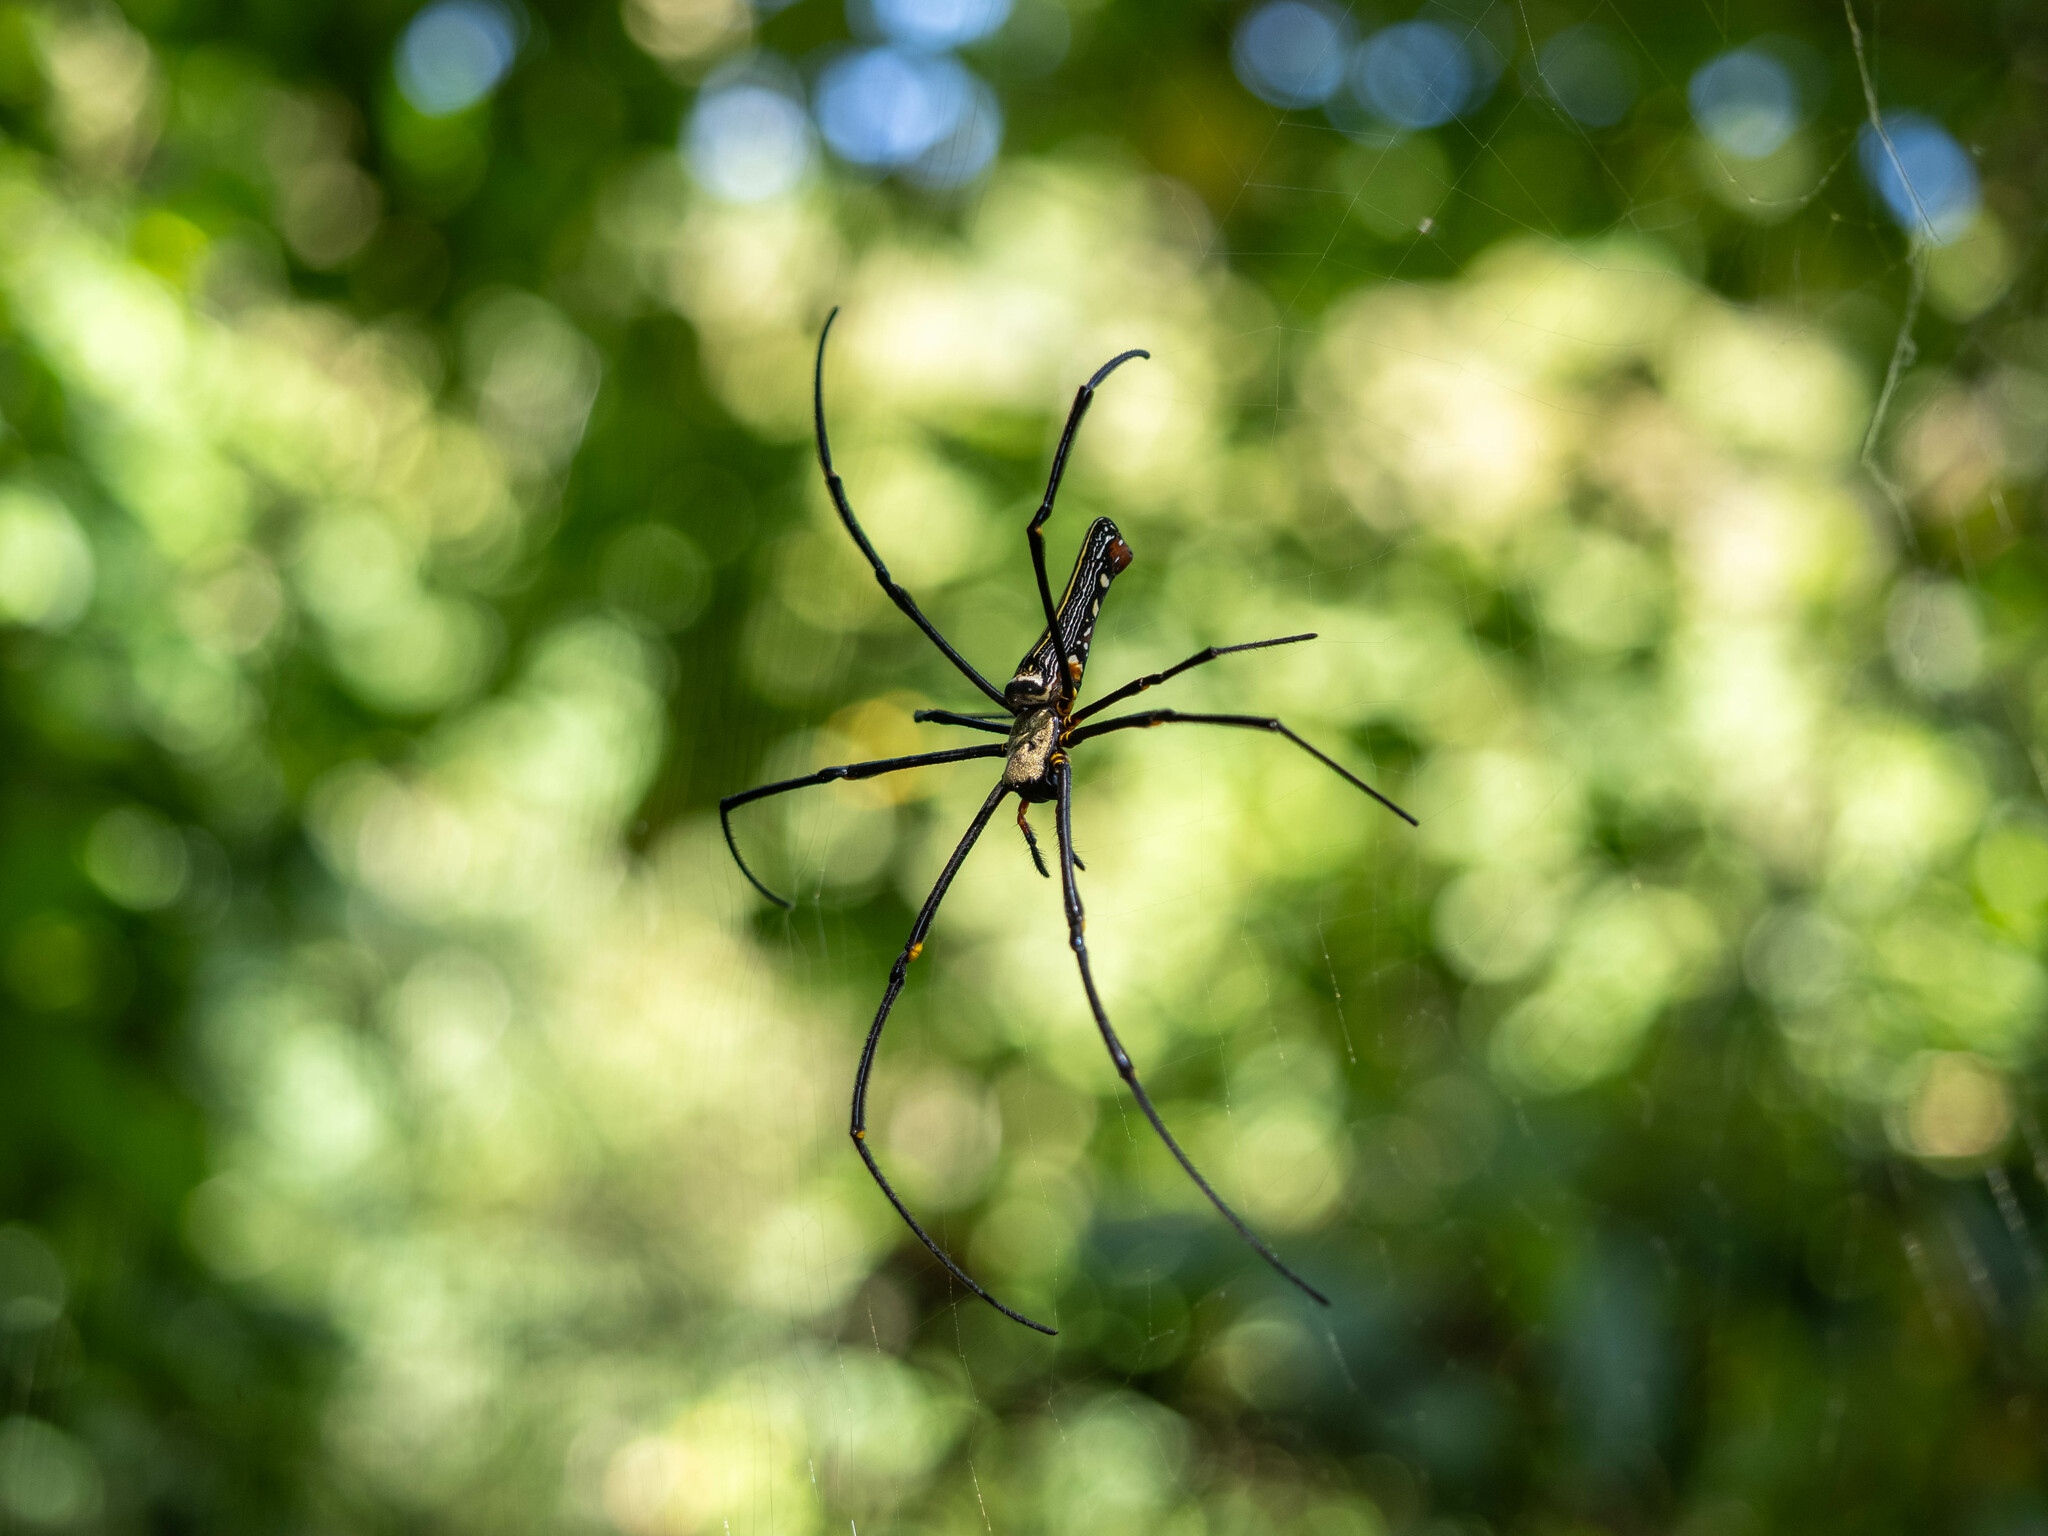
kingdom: Animalia
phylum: Arthropoda
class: Arachnida
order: Araneae
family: Araneidae
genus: Nephila
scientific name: Nephila pilipes
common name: Giant golden orb weaver
